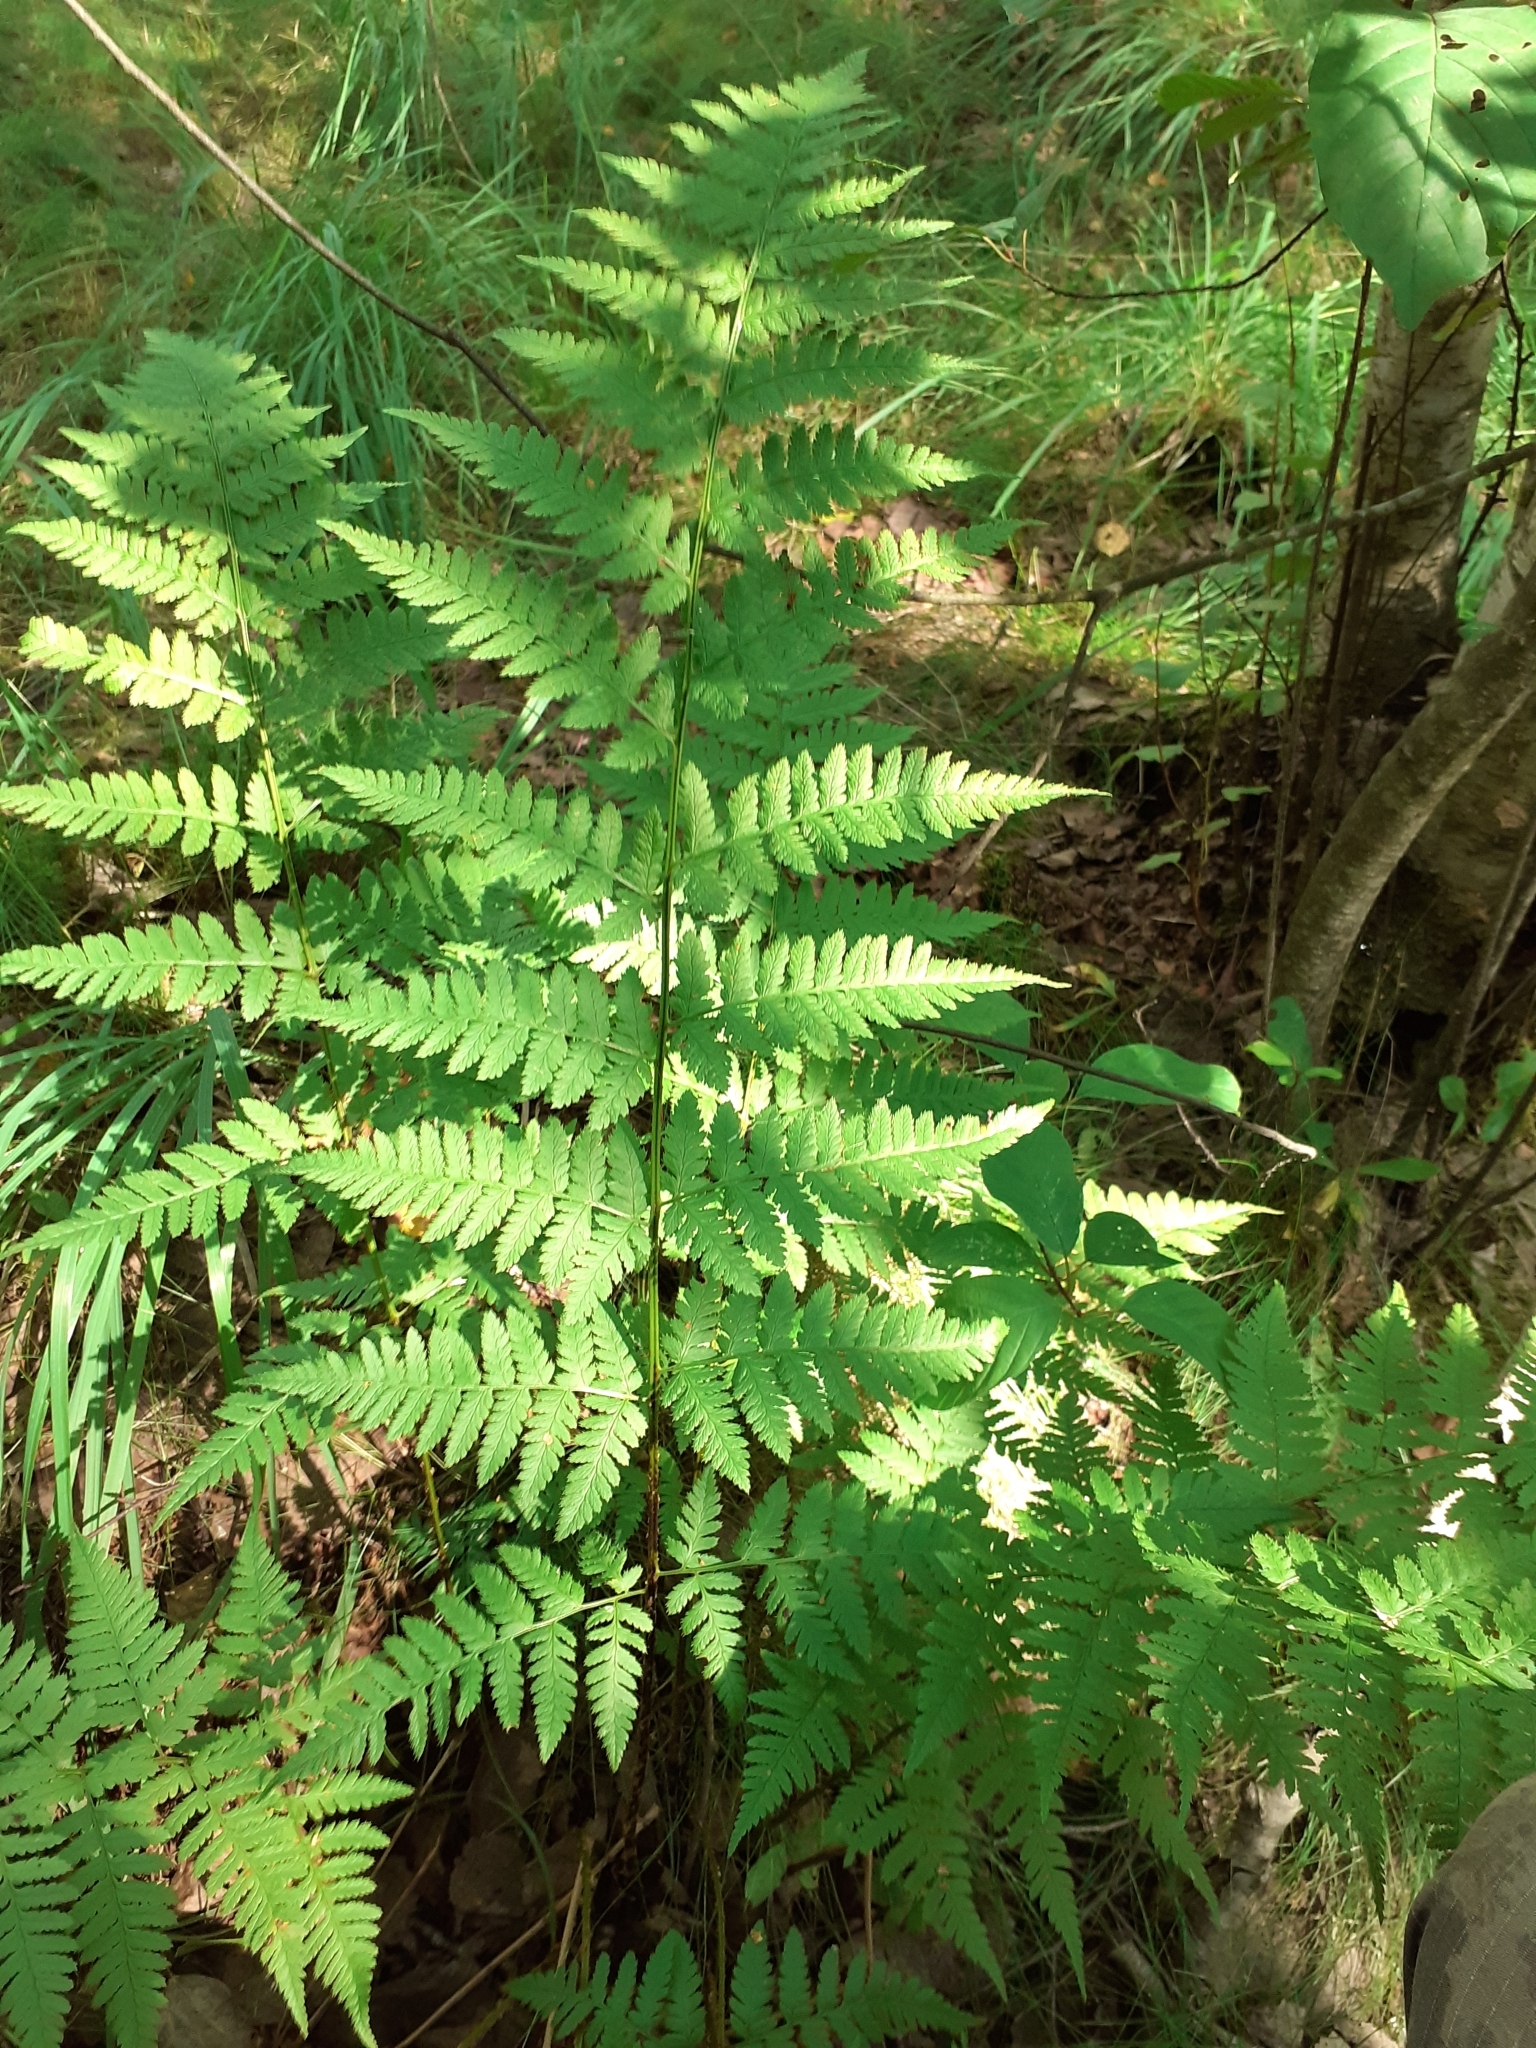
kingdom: Plantae
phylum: Tracheophyta
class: Polypodiopsida
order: Polypodiales
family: Dryopteridaceae
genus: Dryopteris
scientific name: Dryopteris carthusiana
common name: Narrow buckler-fern
